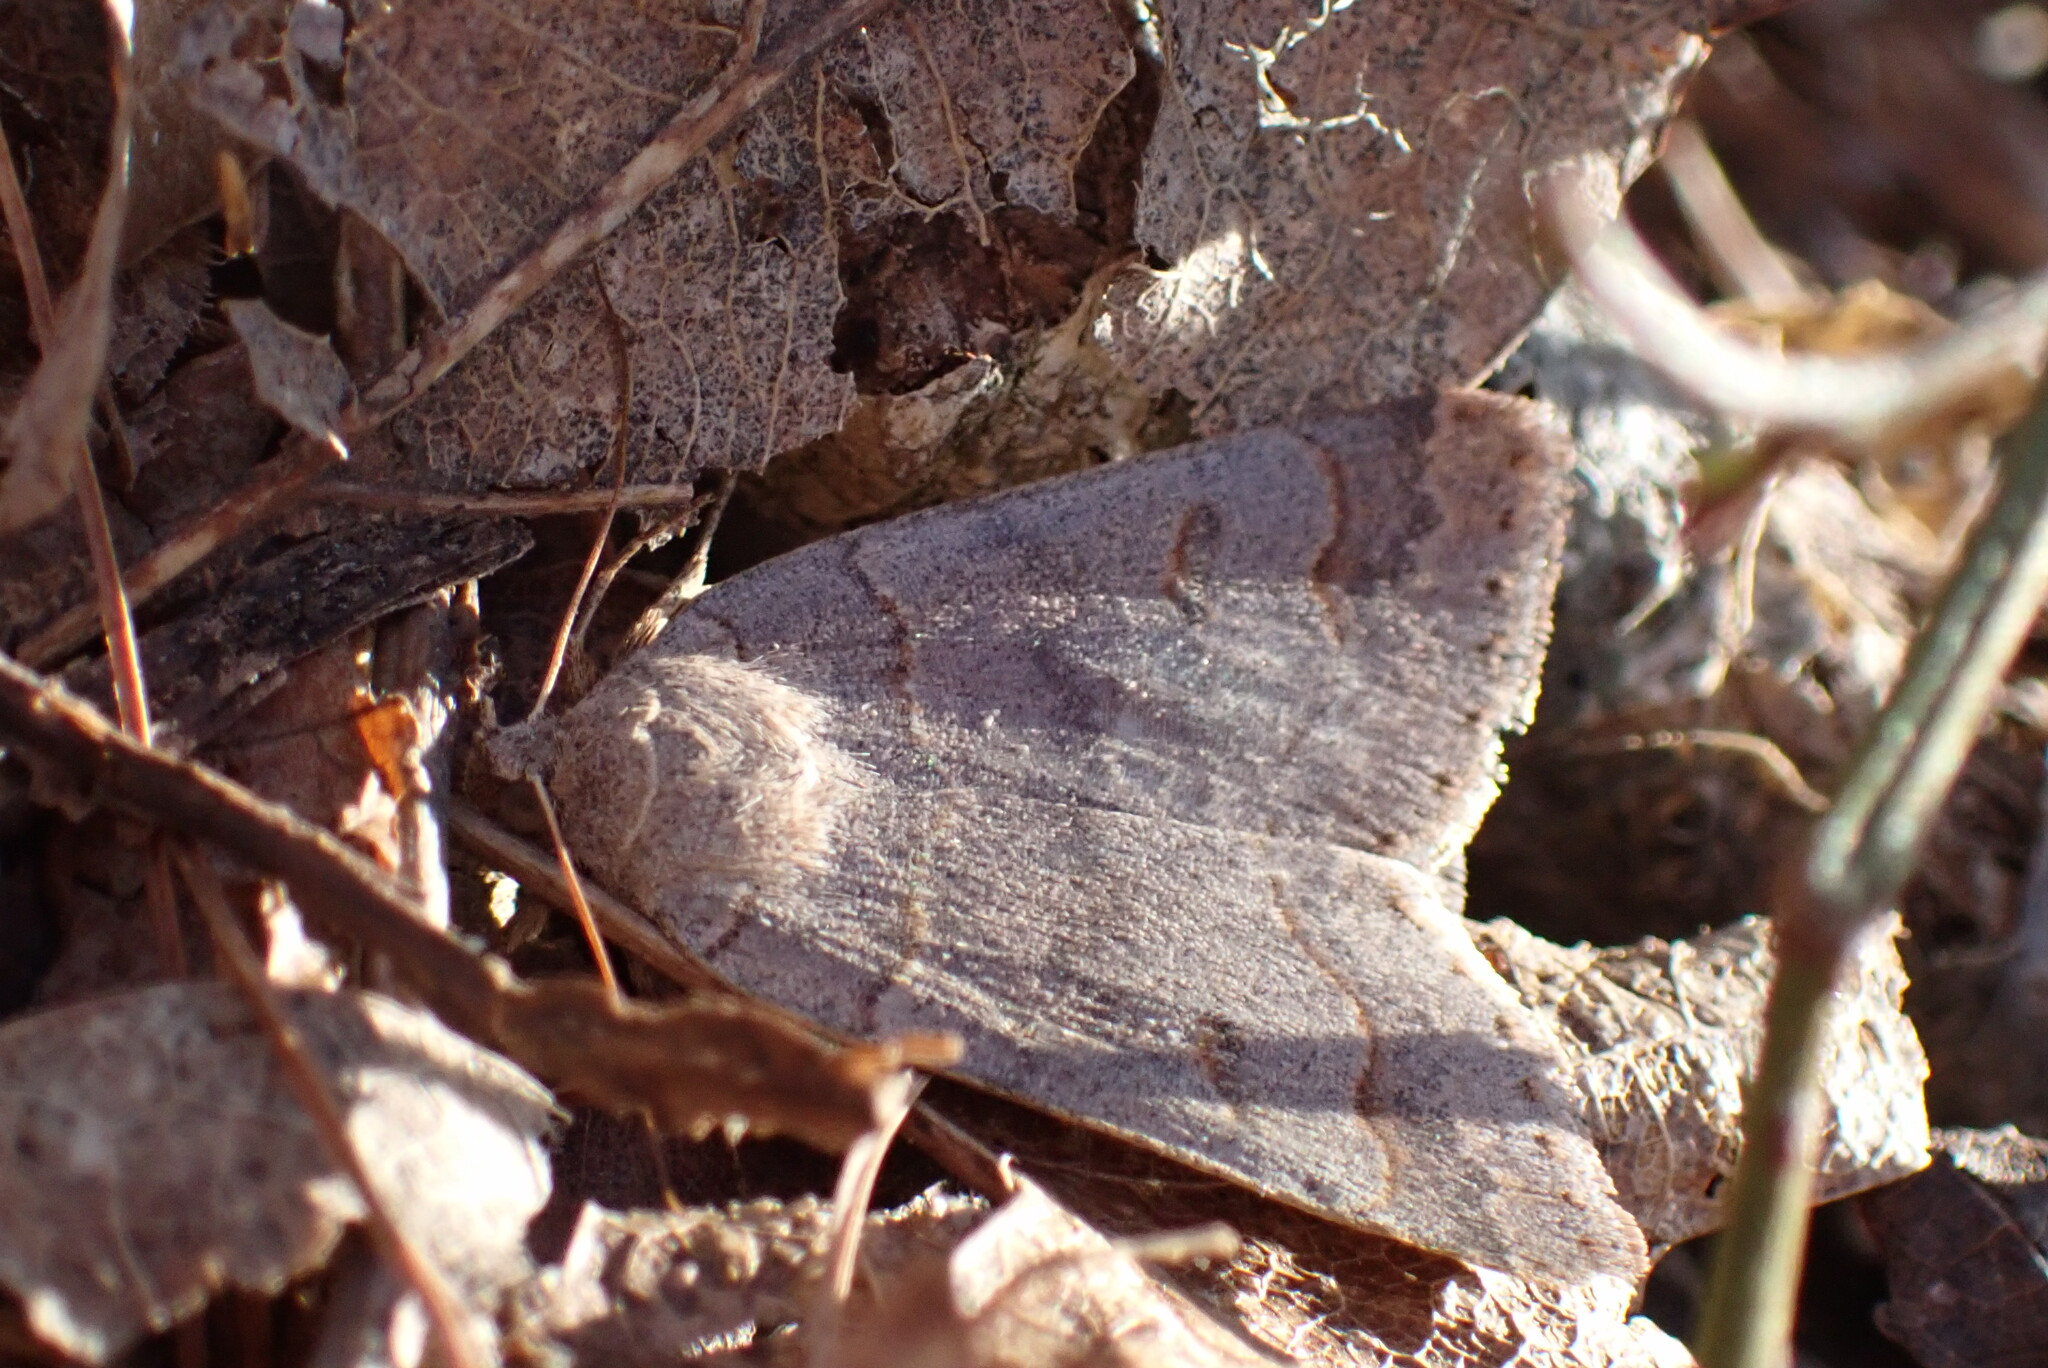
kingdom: Animalia
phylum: Arthropoda
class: Insecta
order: Lepidoptera
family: Erebidae
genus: Phoberia
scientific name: Phoberia atomaris
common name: Common oak moth
